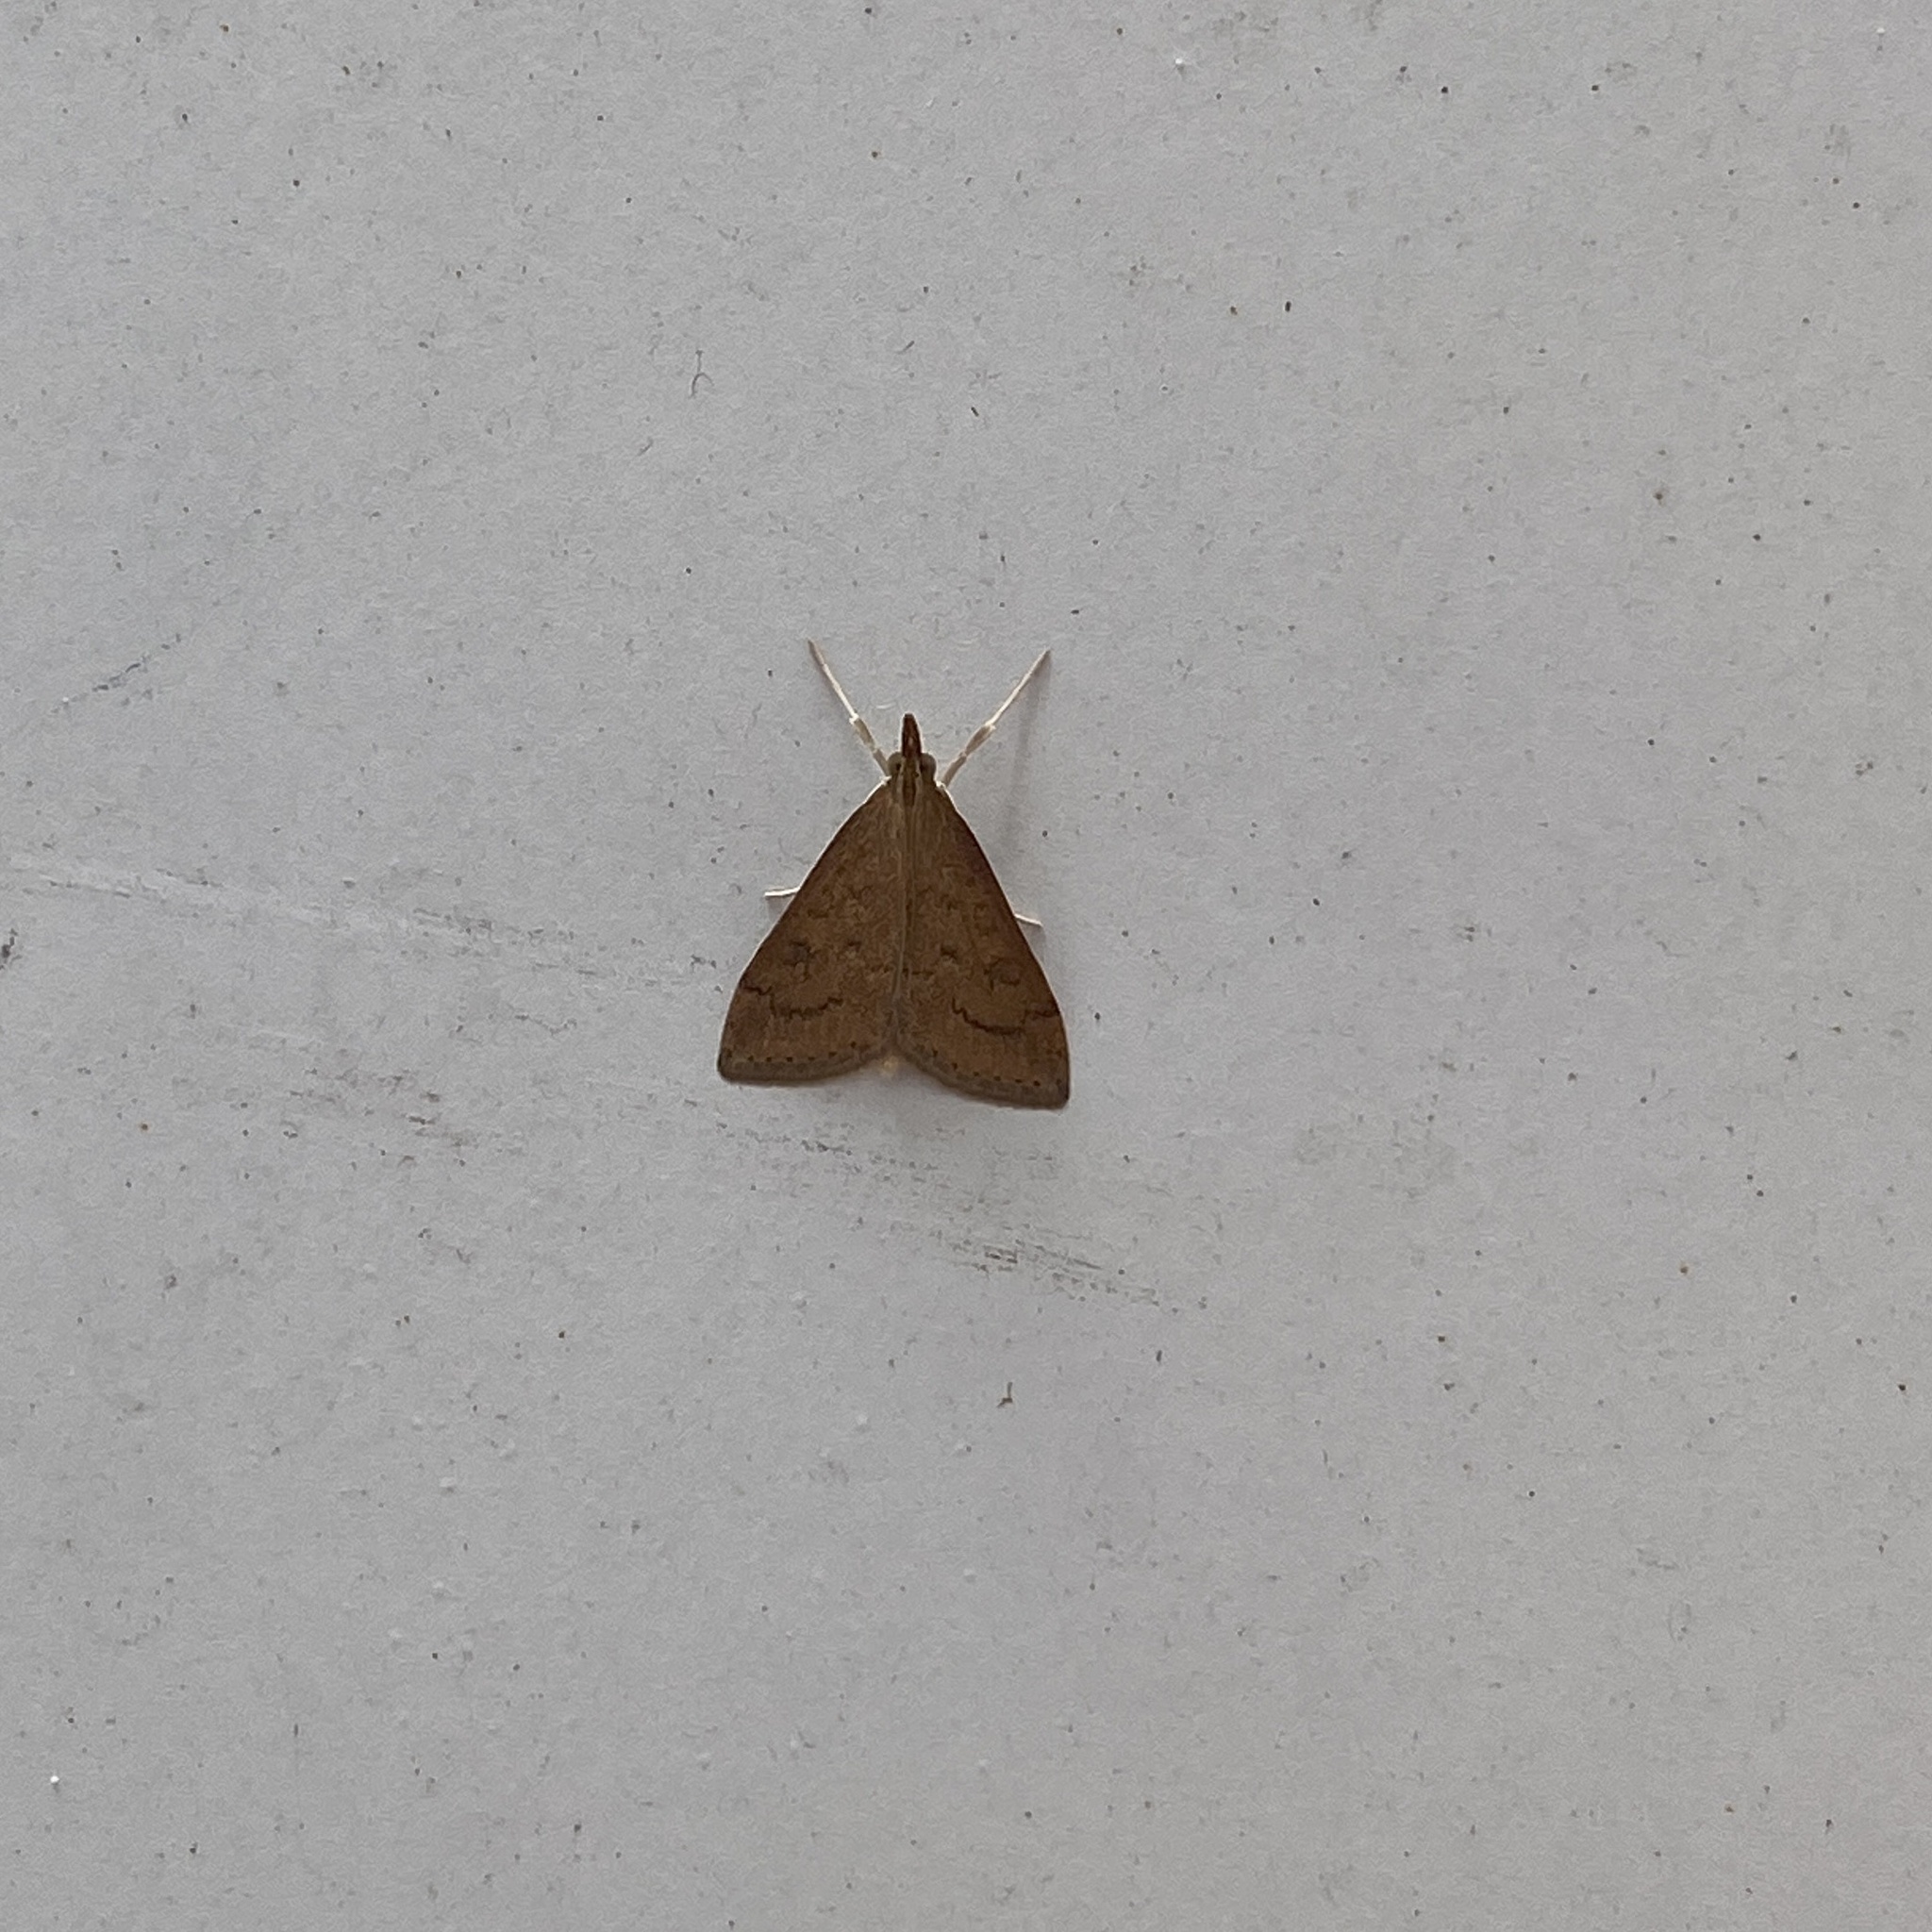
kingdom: Animalia
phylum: Arthropoda
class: Insecta
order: Lepidoptera
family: Crambidae
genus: Udea
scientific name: Udea rubigalis
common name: Celery leaftier moth
